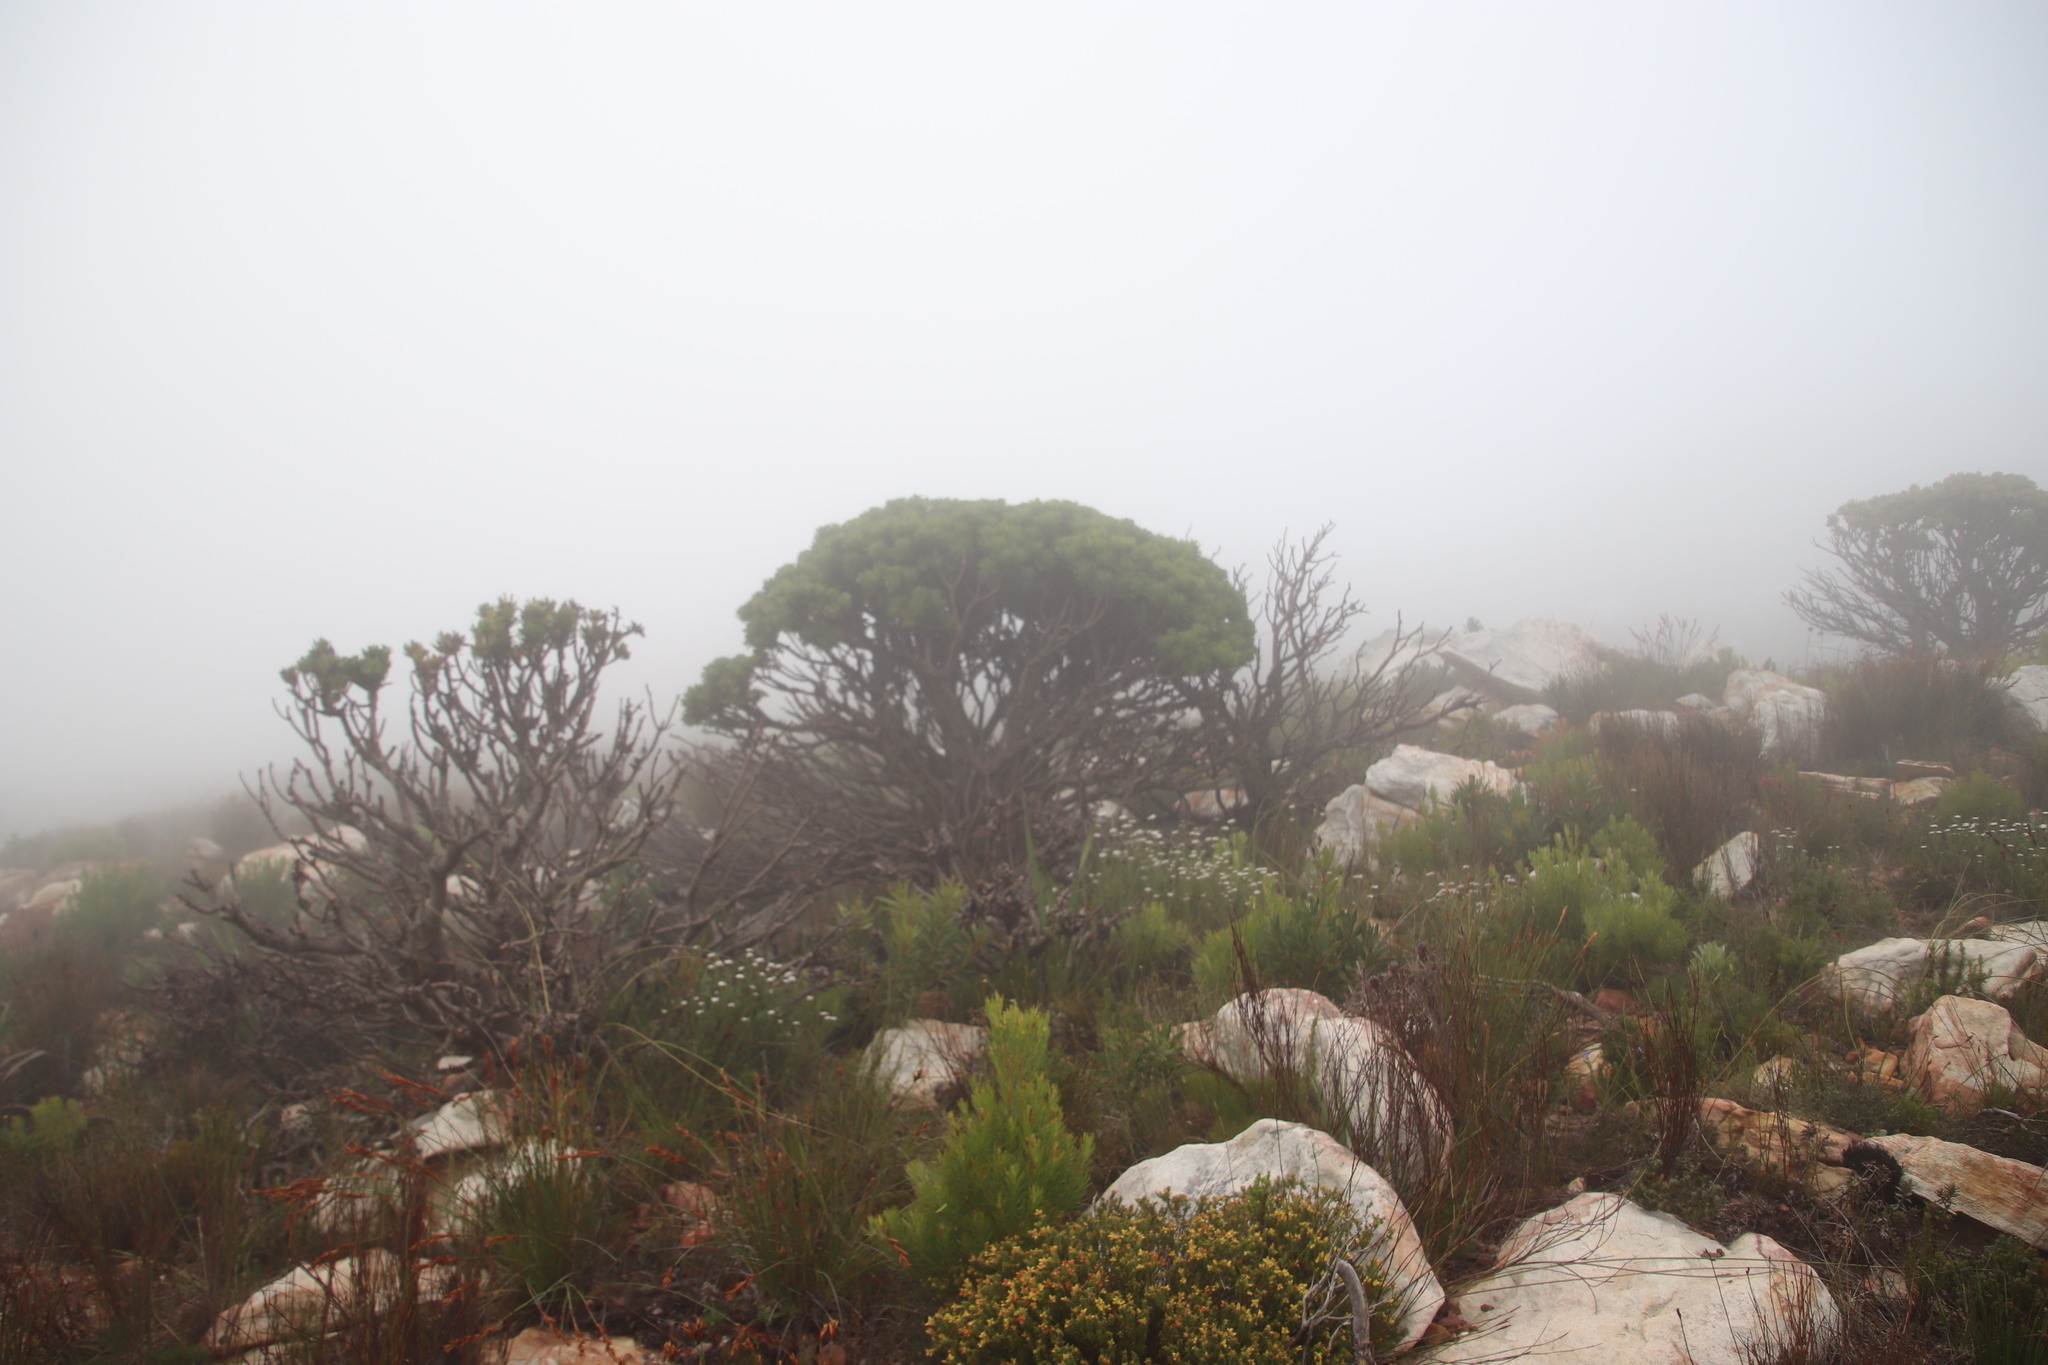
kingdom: Plantae
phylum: Tracheophyta
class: Magnoliopsida
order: Proteales
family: Proteaceae
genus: Mimetes
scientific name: Mimetes fimbriifolius
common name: Fringed bottlebrush
